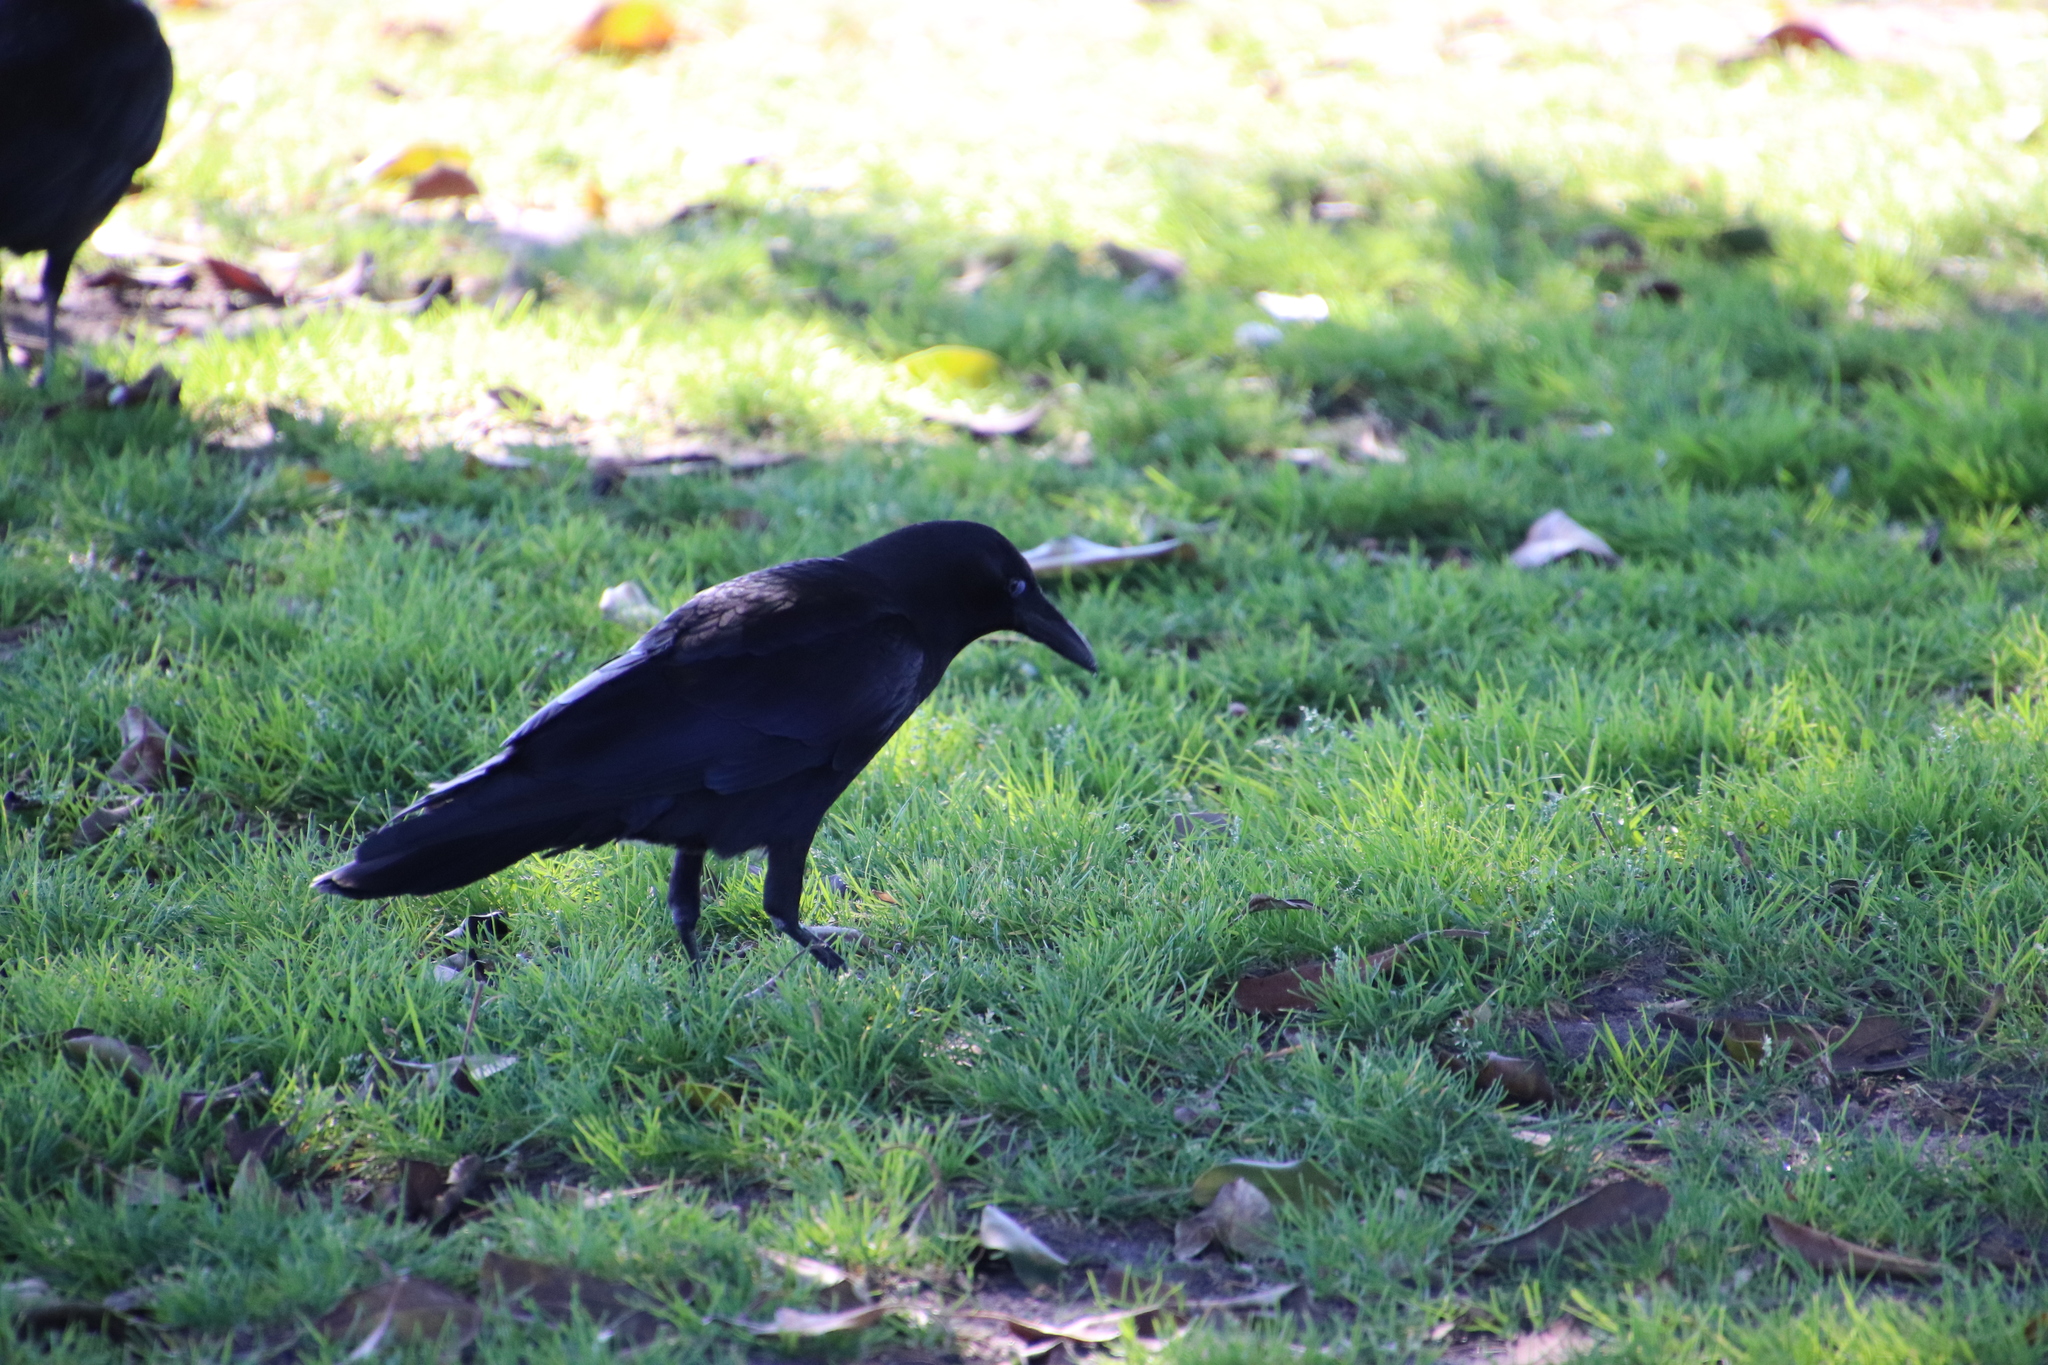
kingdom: Animalia
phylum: Chordata
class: Aves
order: Passeriformes
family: Corvidae
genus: Corvus
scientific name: Corvus brachyrhynchos
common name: American crow
